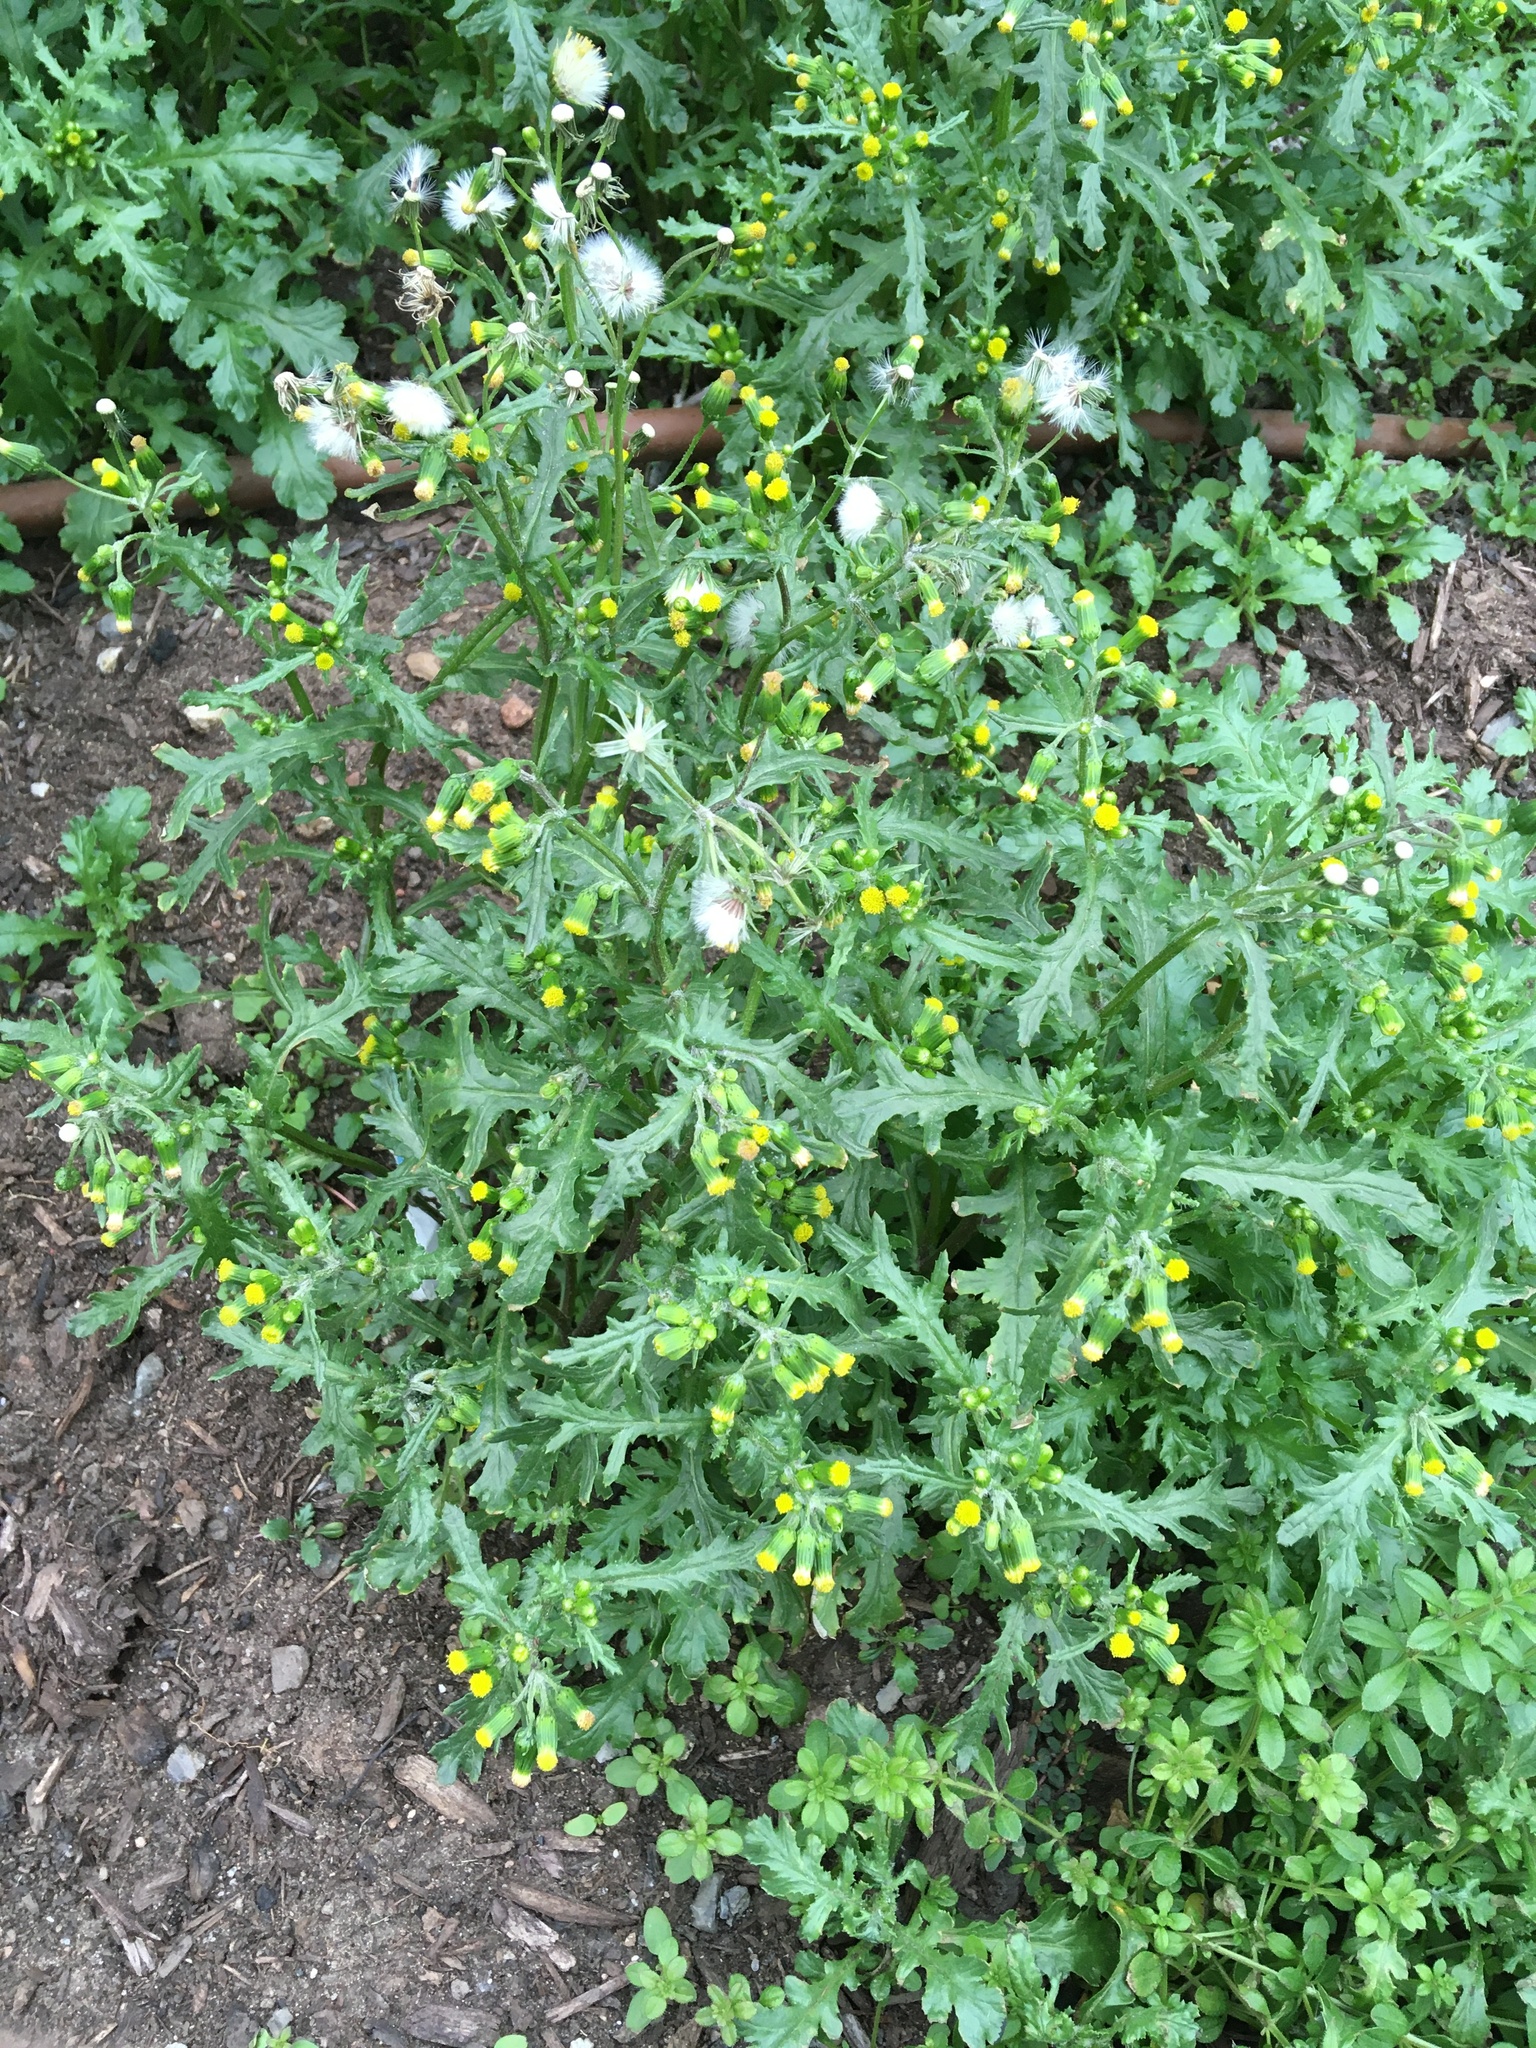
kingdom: Plantae
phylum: Tracheophyta
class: Magnoliopsida
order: Asterales
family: Asteraceae
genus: Senecio
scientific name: Senecio vulgaris
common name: Old-man-in-the-spring
